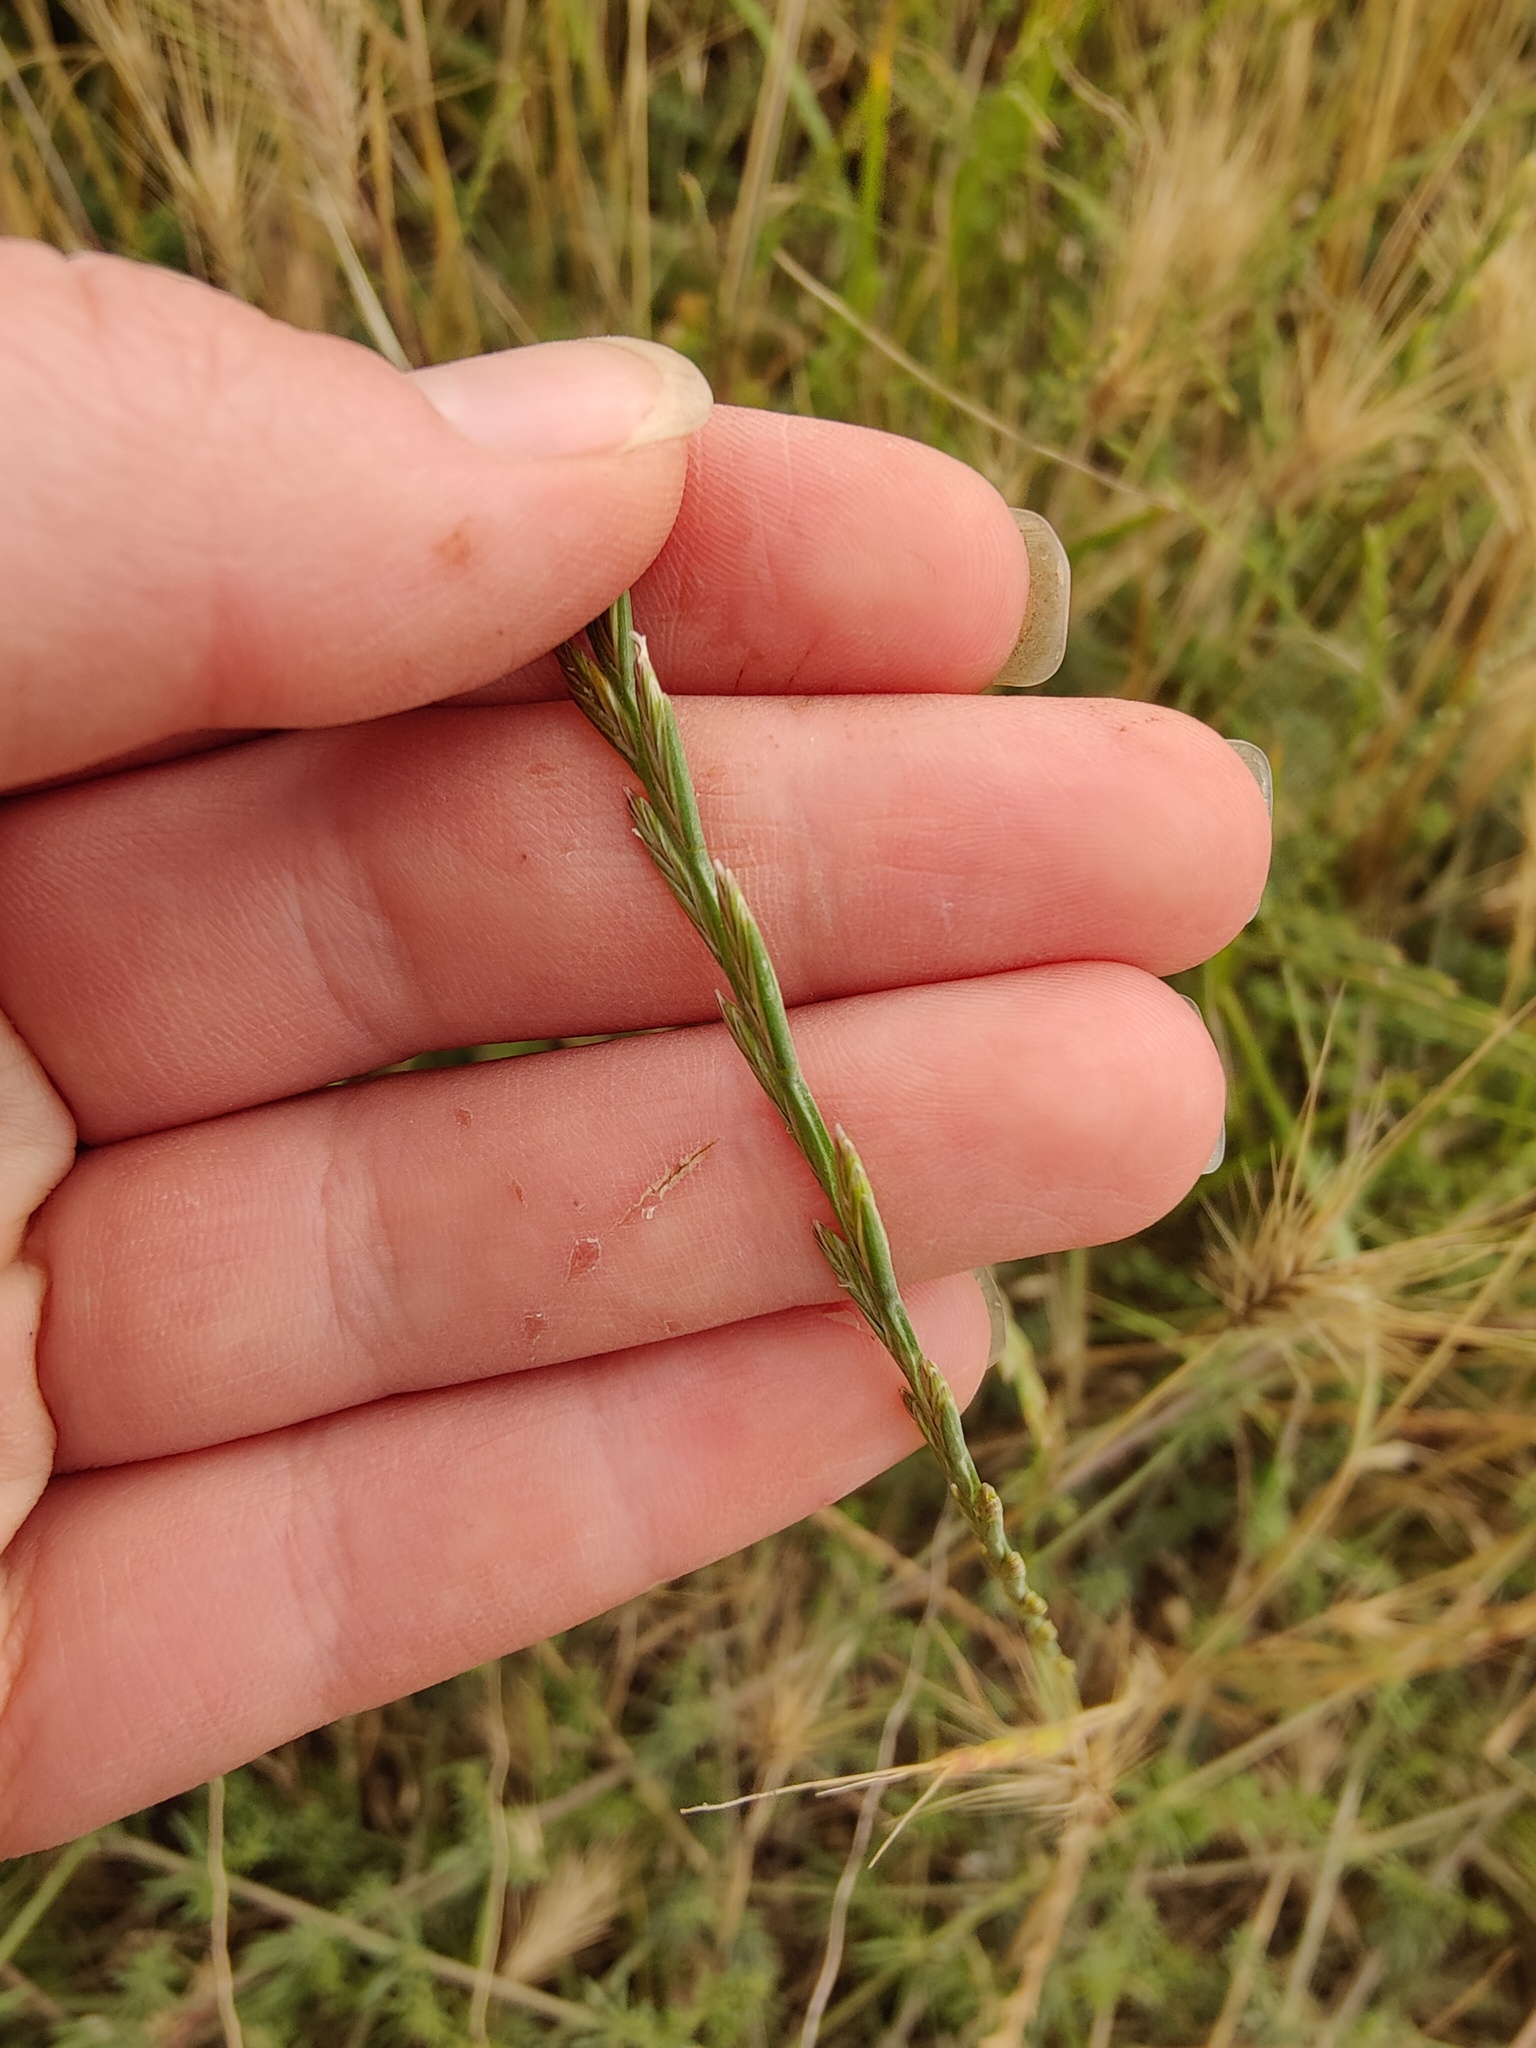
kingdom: Plantae
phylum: Tracheophyta
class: Liliopsida
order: Poales
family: Poaceae
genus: Lolium
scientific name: Lolium perenne
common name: Perennial ryegrass
